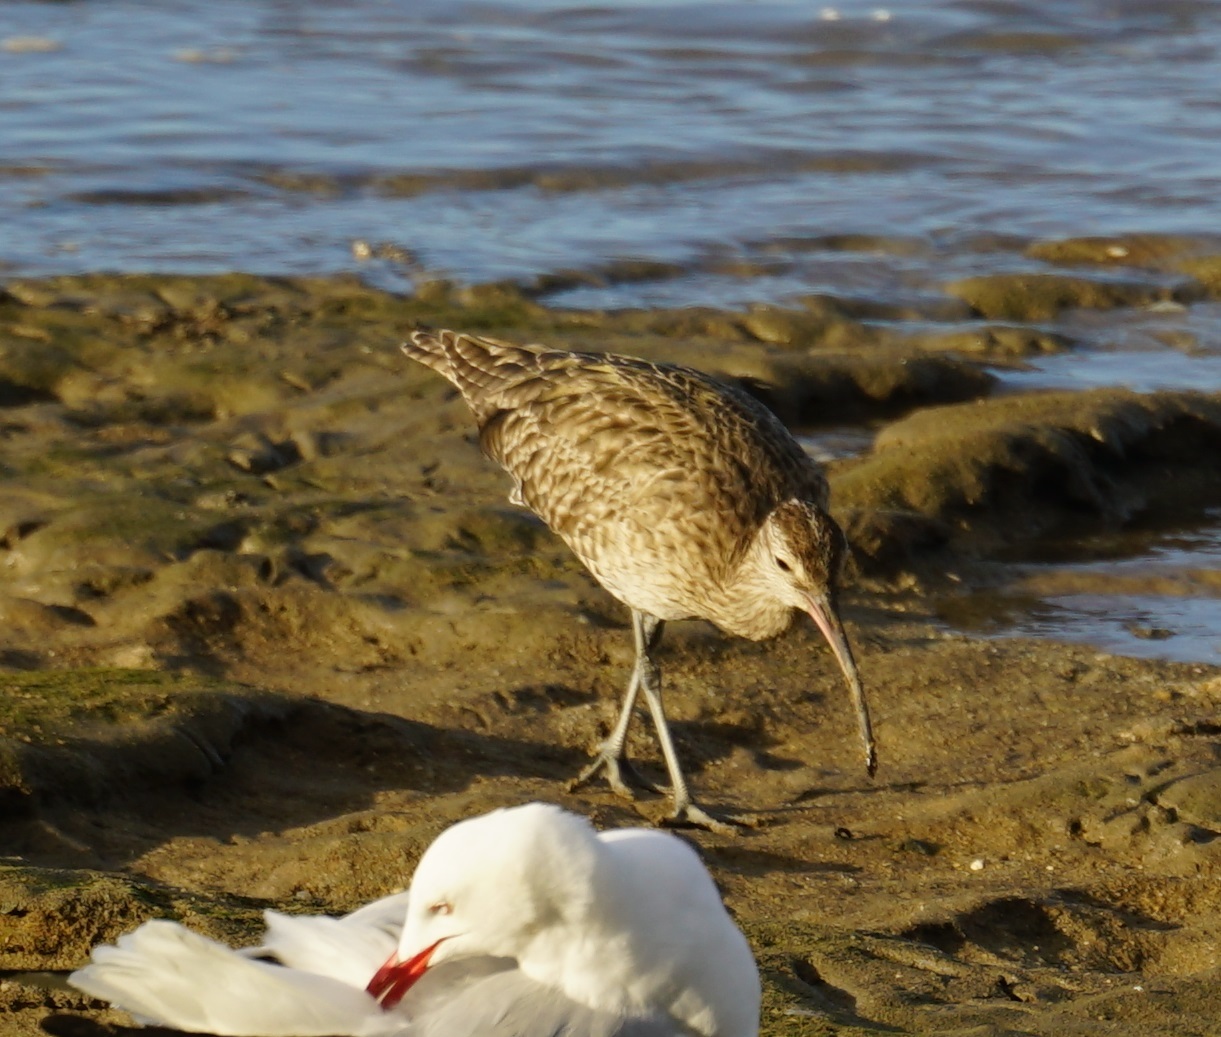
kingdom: Animalia
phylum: Chordata
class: Aves
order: Charadriiformes
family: Scolopacidae
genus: Numenius
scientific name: Numenius phaeopus
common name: Whimbrel
